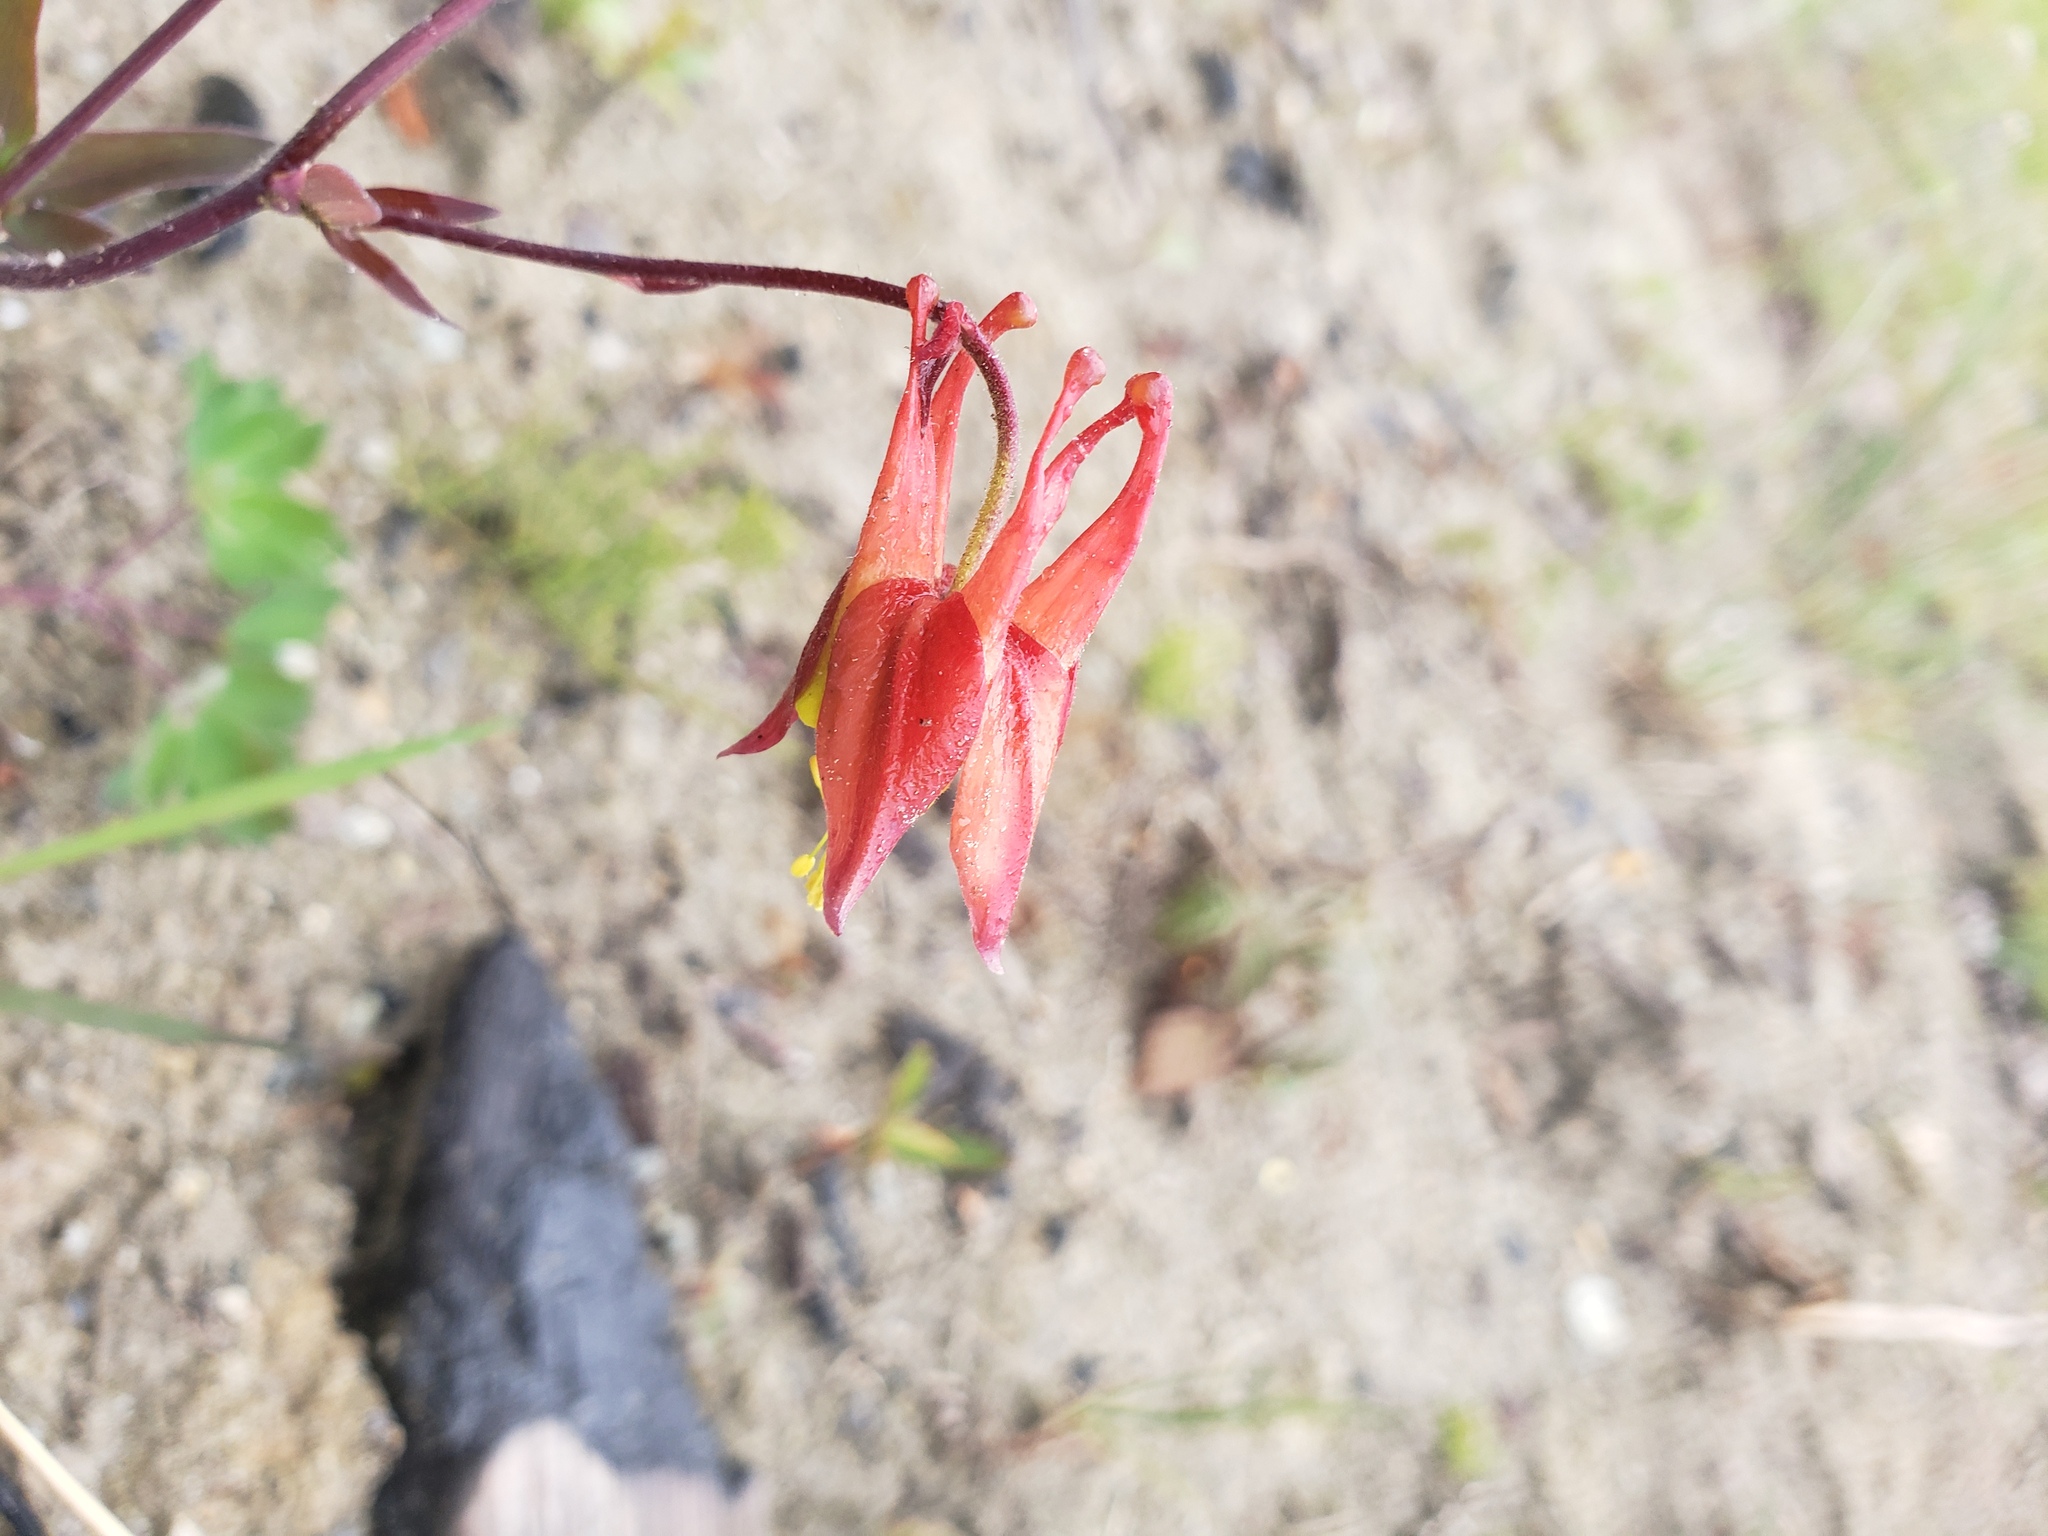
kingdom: Plantae
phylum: Tracheophyta
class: Magnoliopsida
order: Ranunculales
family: Ranunculaceae
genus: Aquilegia
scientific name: Aquilegia formosa
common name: Sitka columbine
